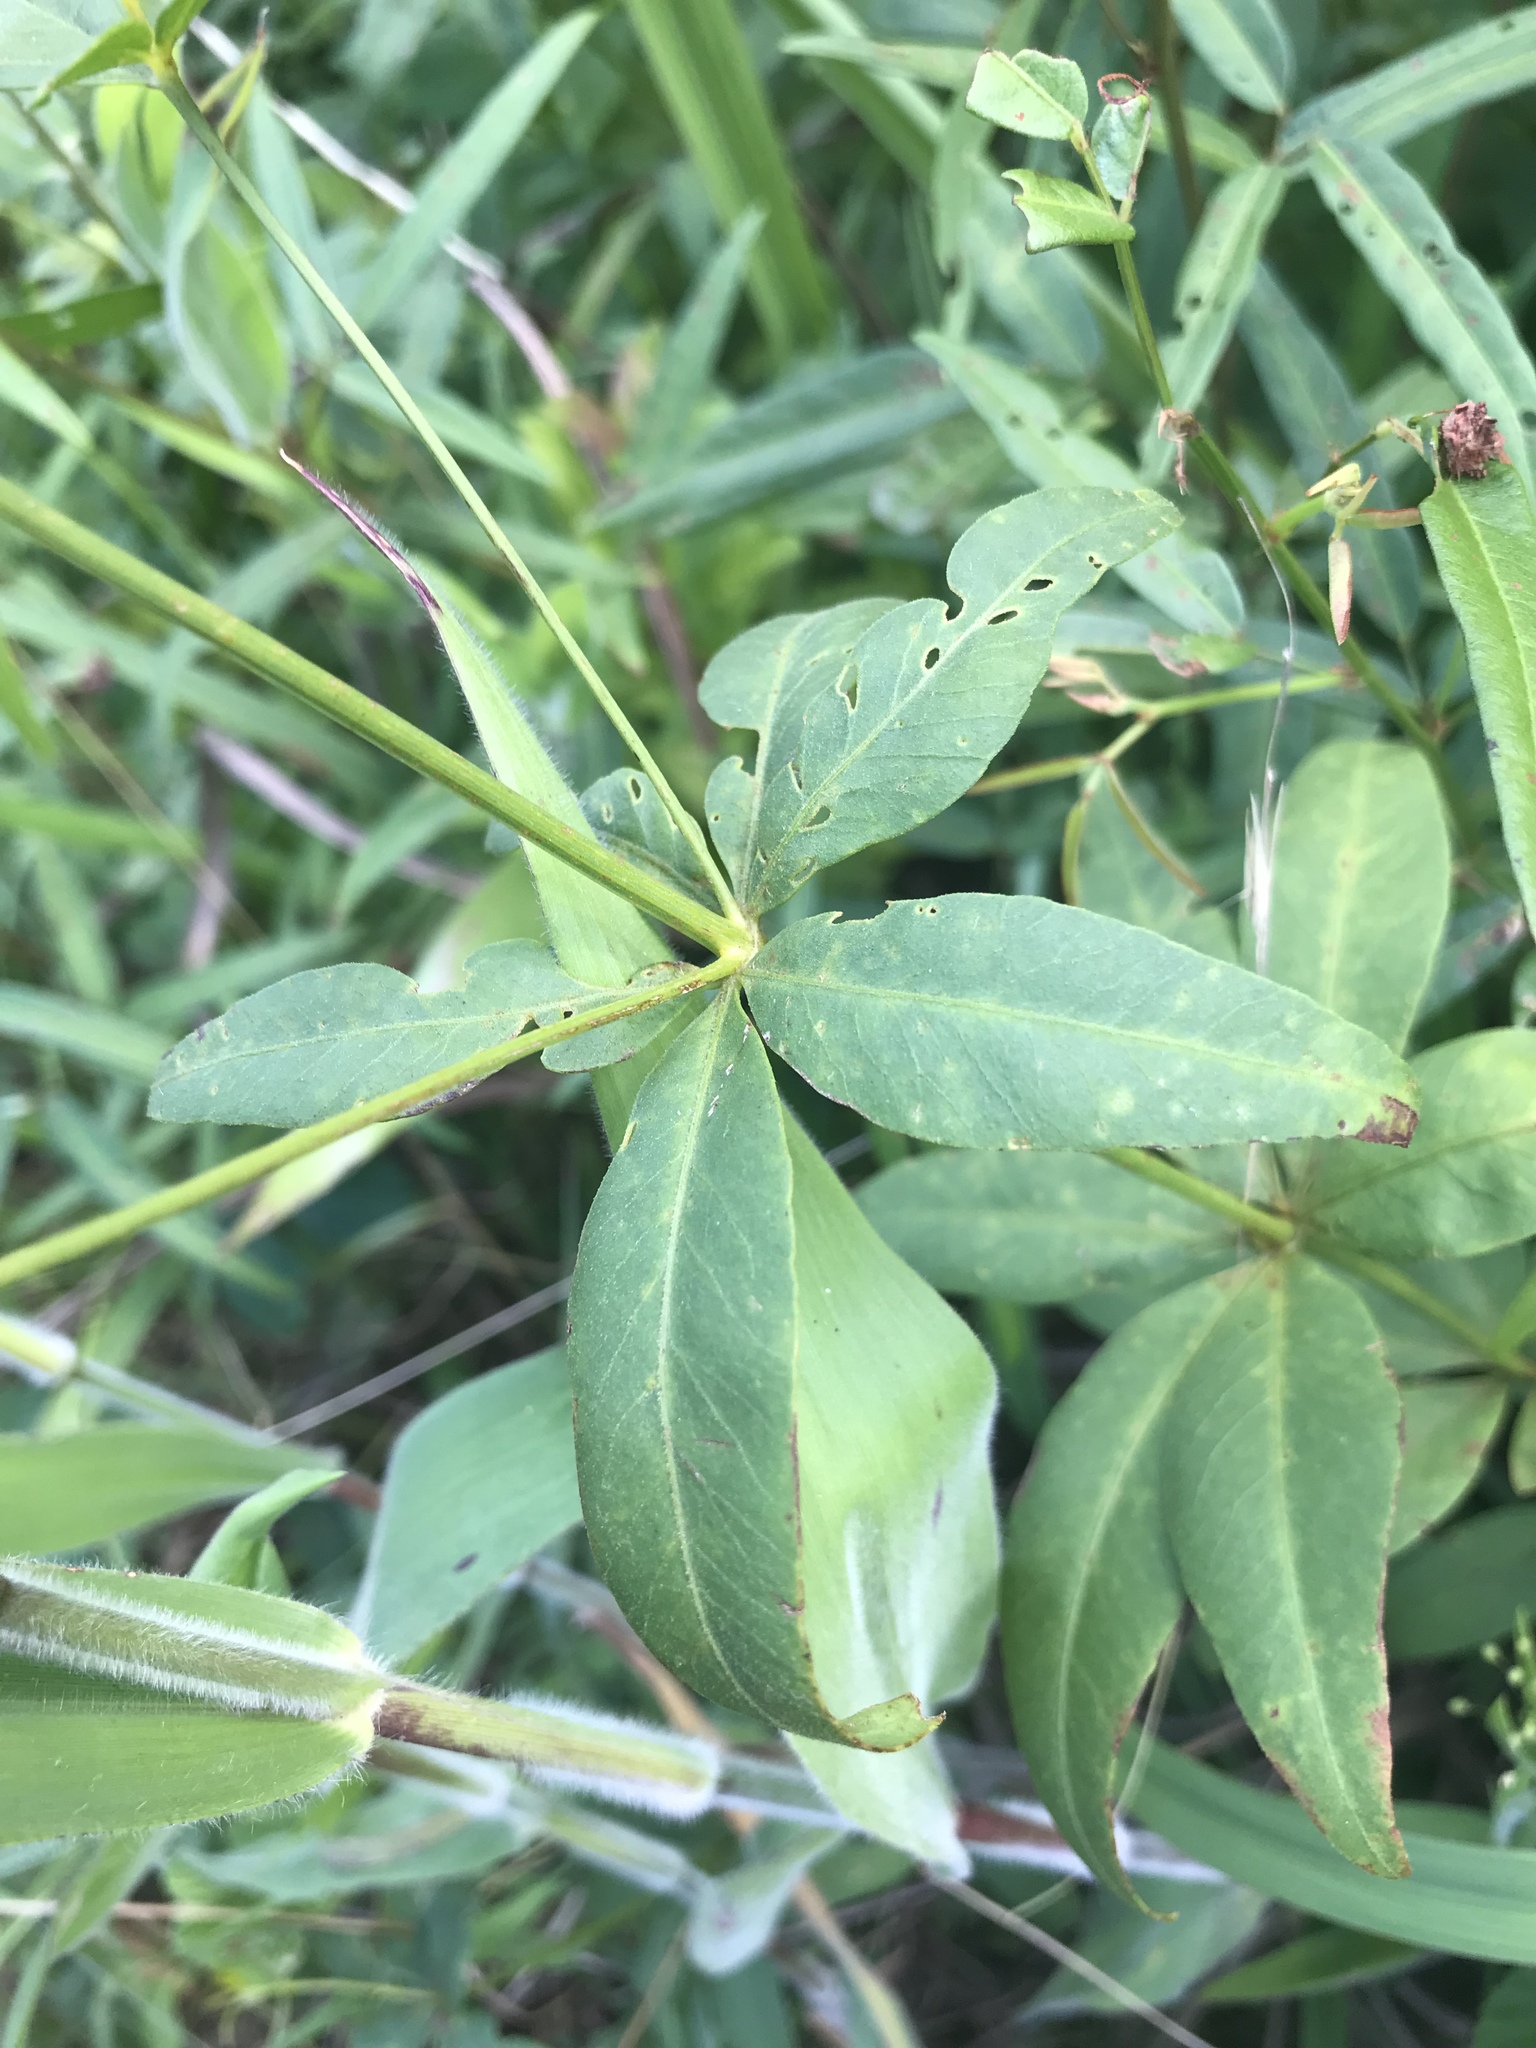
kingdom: Plantae
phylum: Tracheophyta
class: Magnoliopsida
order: Asterales
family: Asteraceae
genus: Coreopsis
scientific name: Coreopsis major
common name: Forest tickseed
